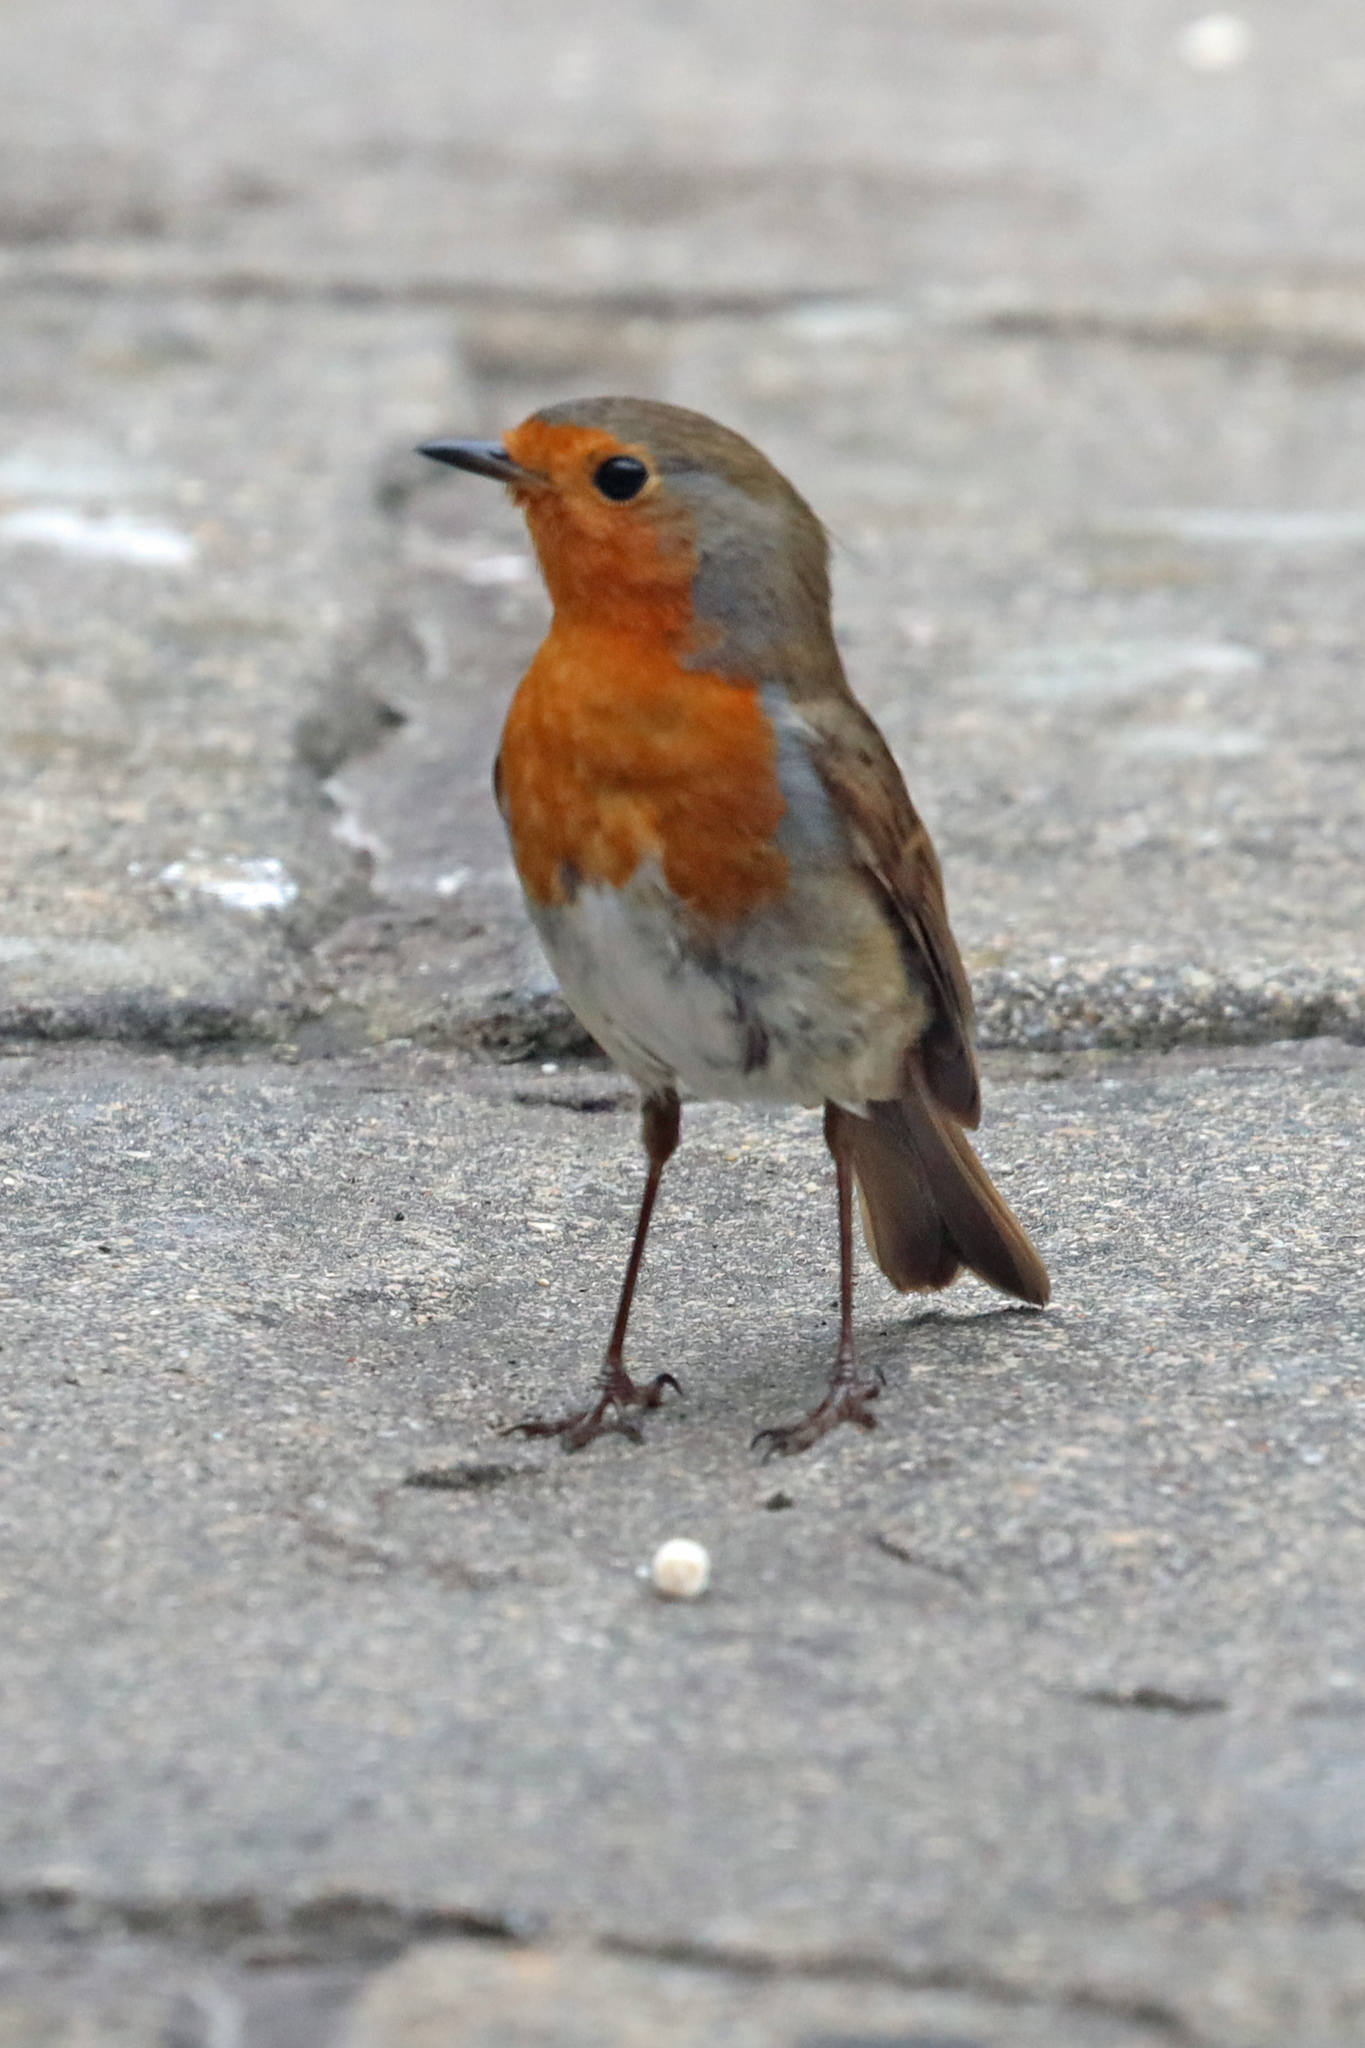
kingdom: Animalia
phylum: Chordata
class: Aves
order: Passeriformes
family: Muscicapidae
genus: Erithacus
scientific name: Erithacus rubecula
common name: European robin
